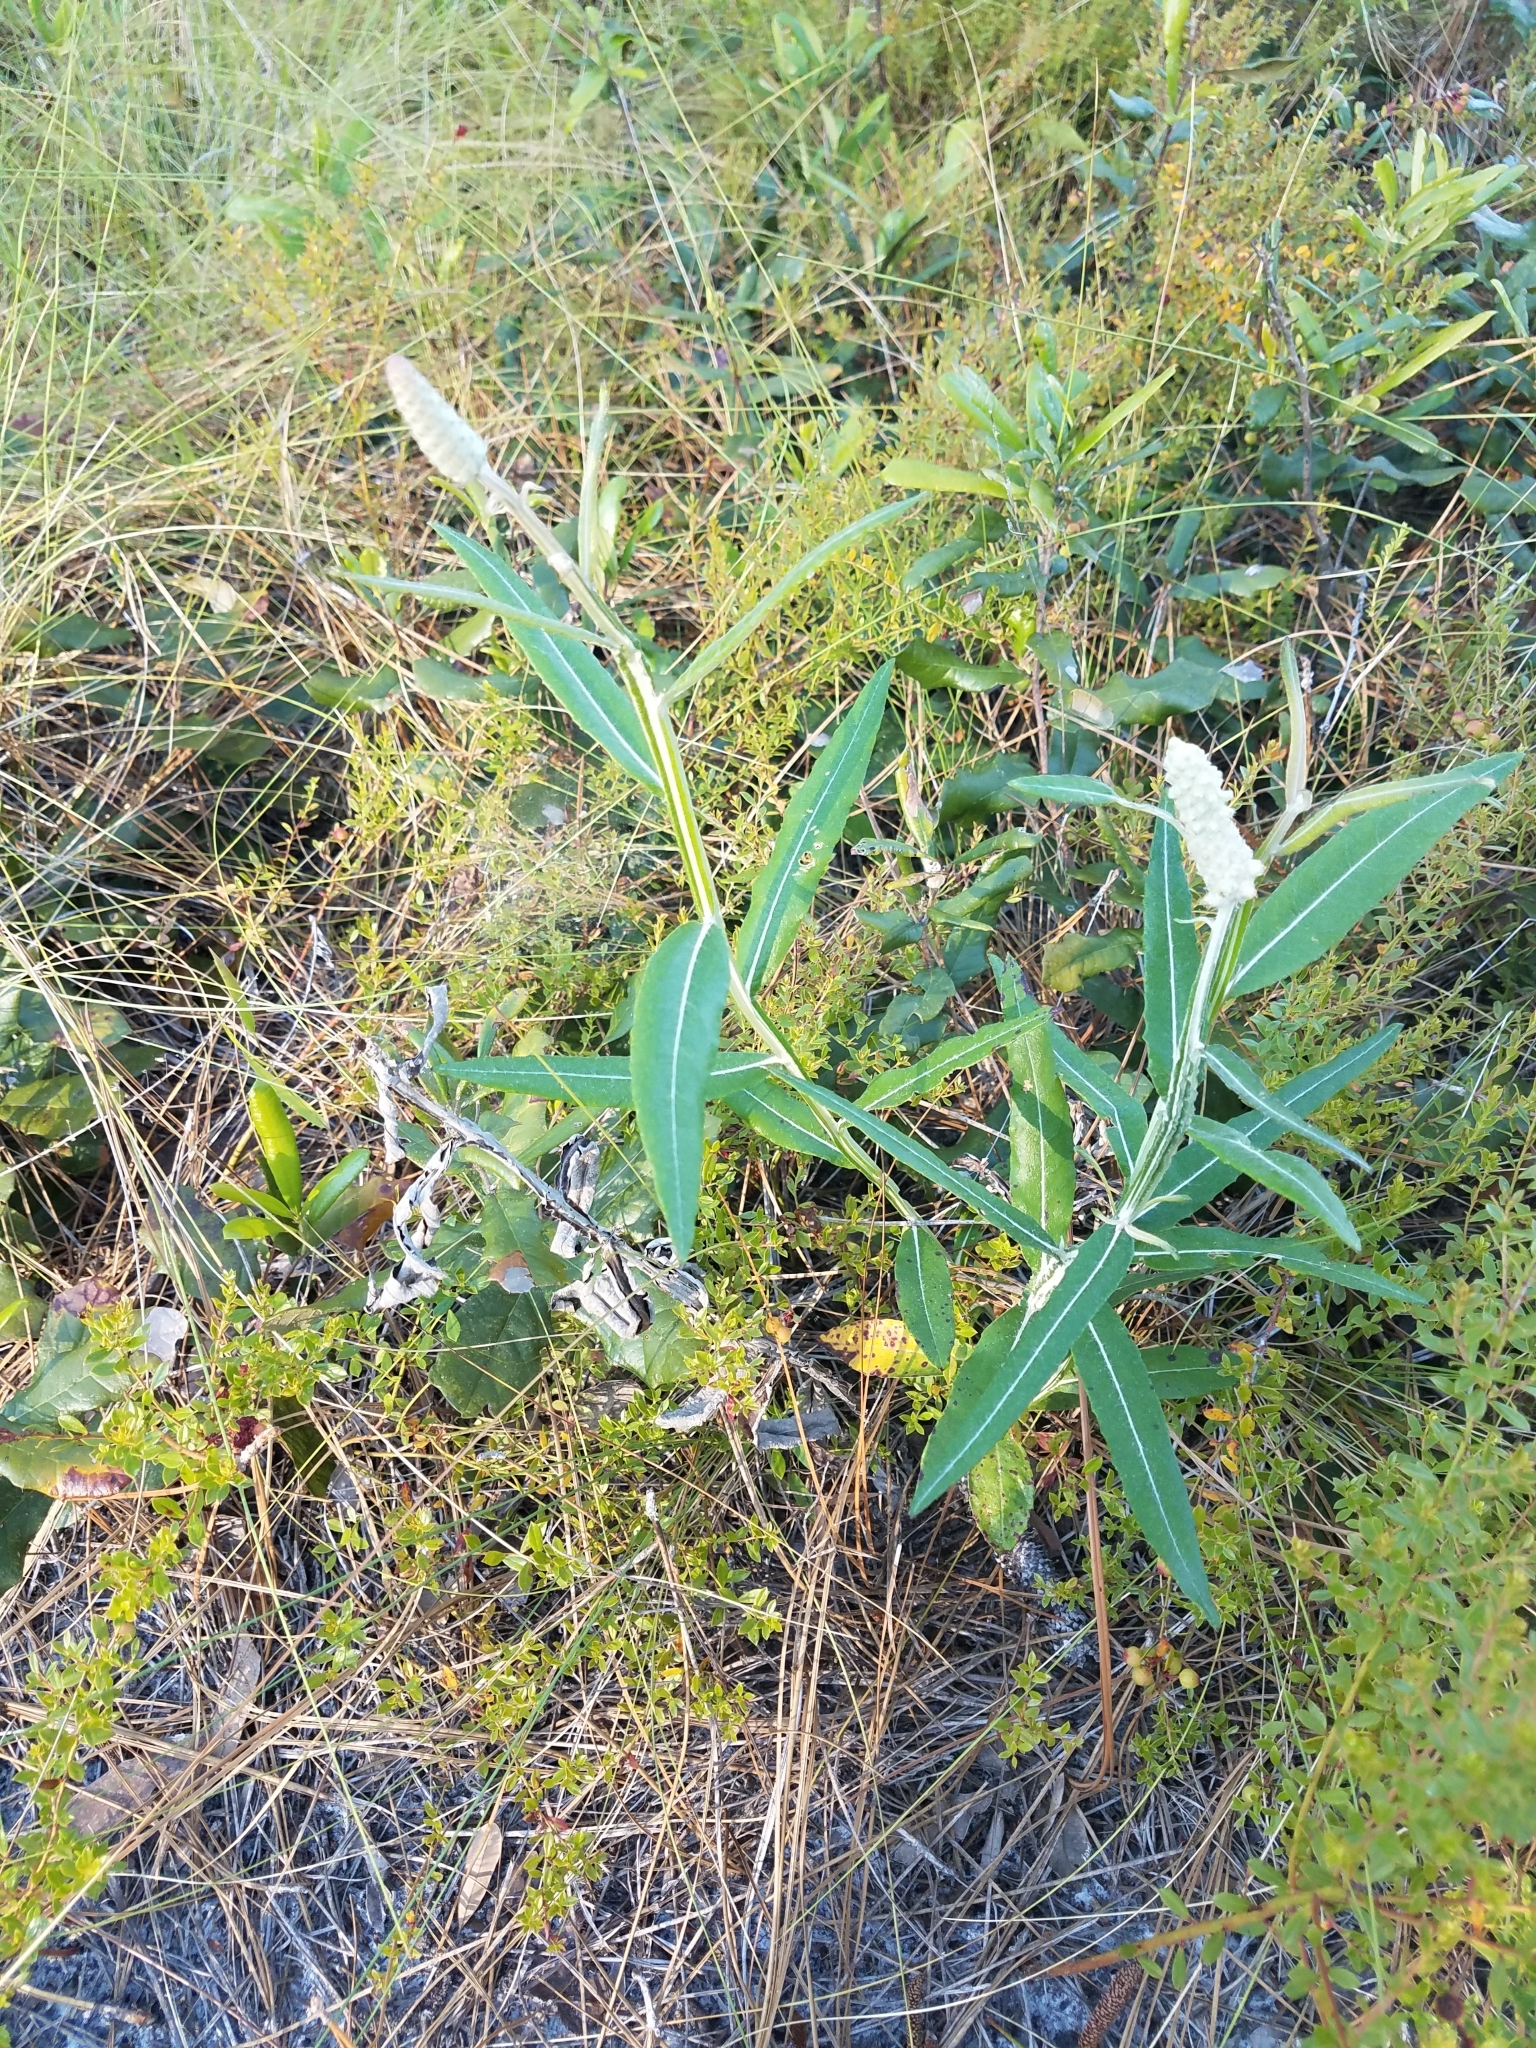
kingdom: Plantae
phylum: Tracheophyta
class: Magnoliopsida
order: Asterales
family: Asteraceae
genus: Pterocaulon
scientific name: Pterocaulon pycnostachyum
